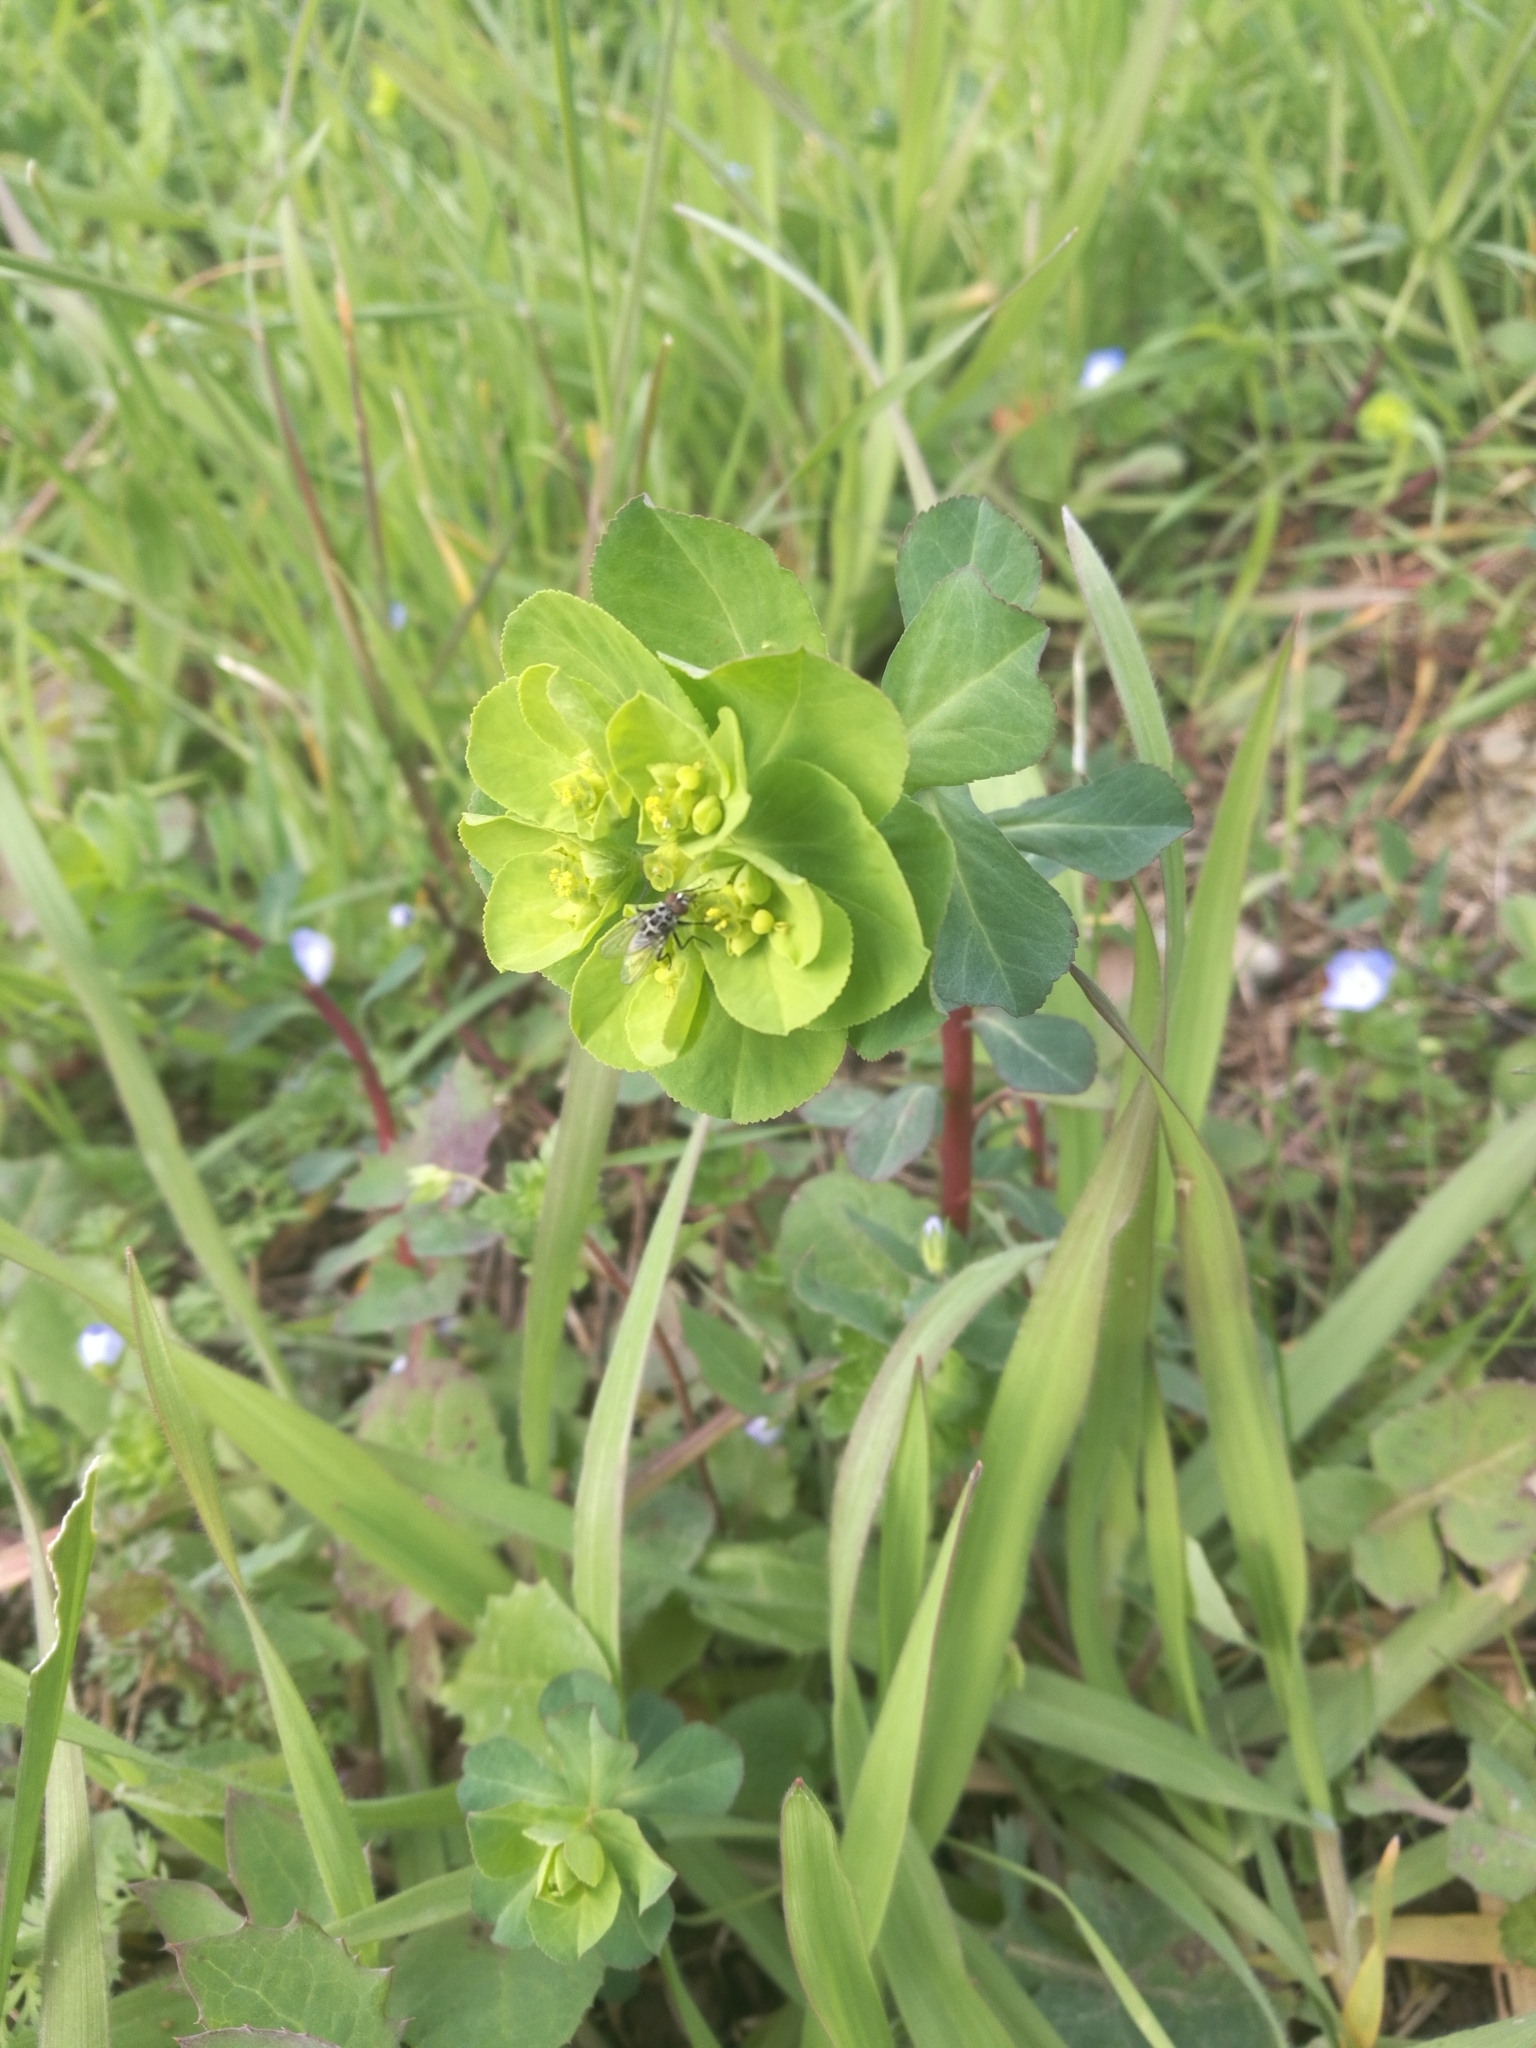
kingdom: Plantae
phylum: Tracheophyta
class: Magnoliopsida
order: Malpighiales
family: Euphorbiaceae
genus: Euphorbia
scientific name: Euphorbia helioscopia
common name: Sun spurge
